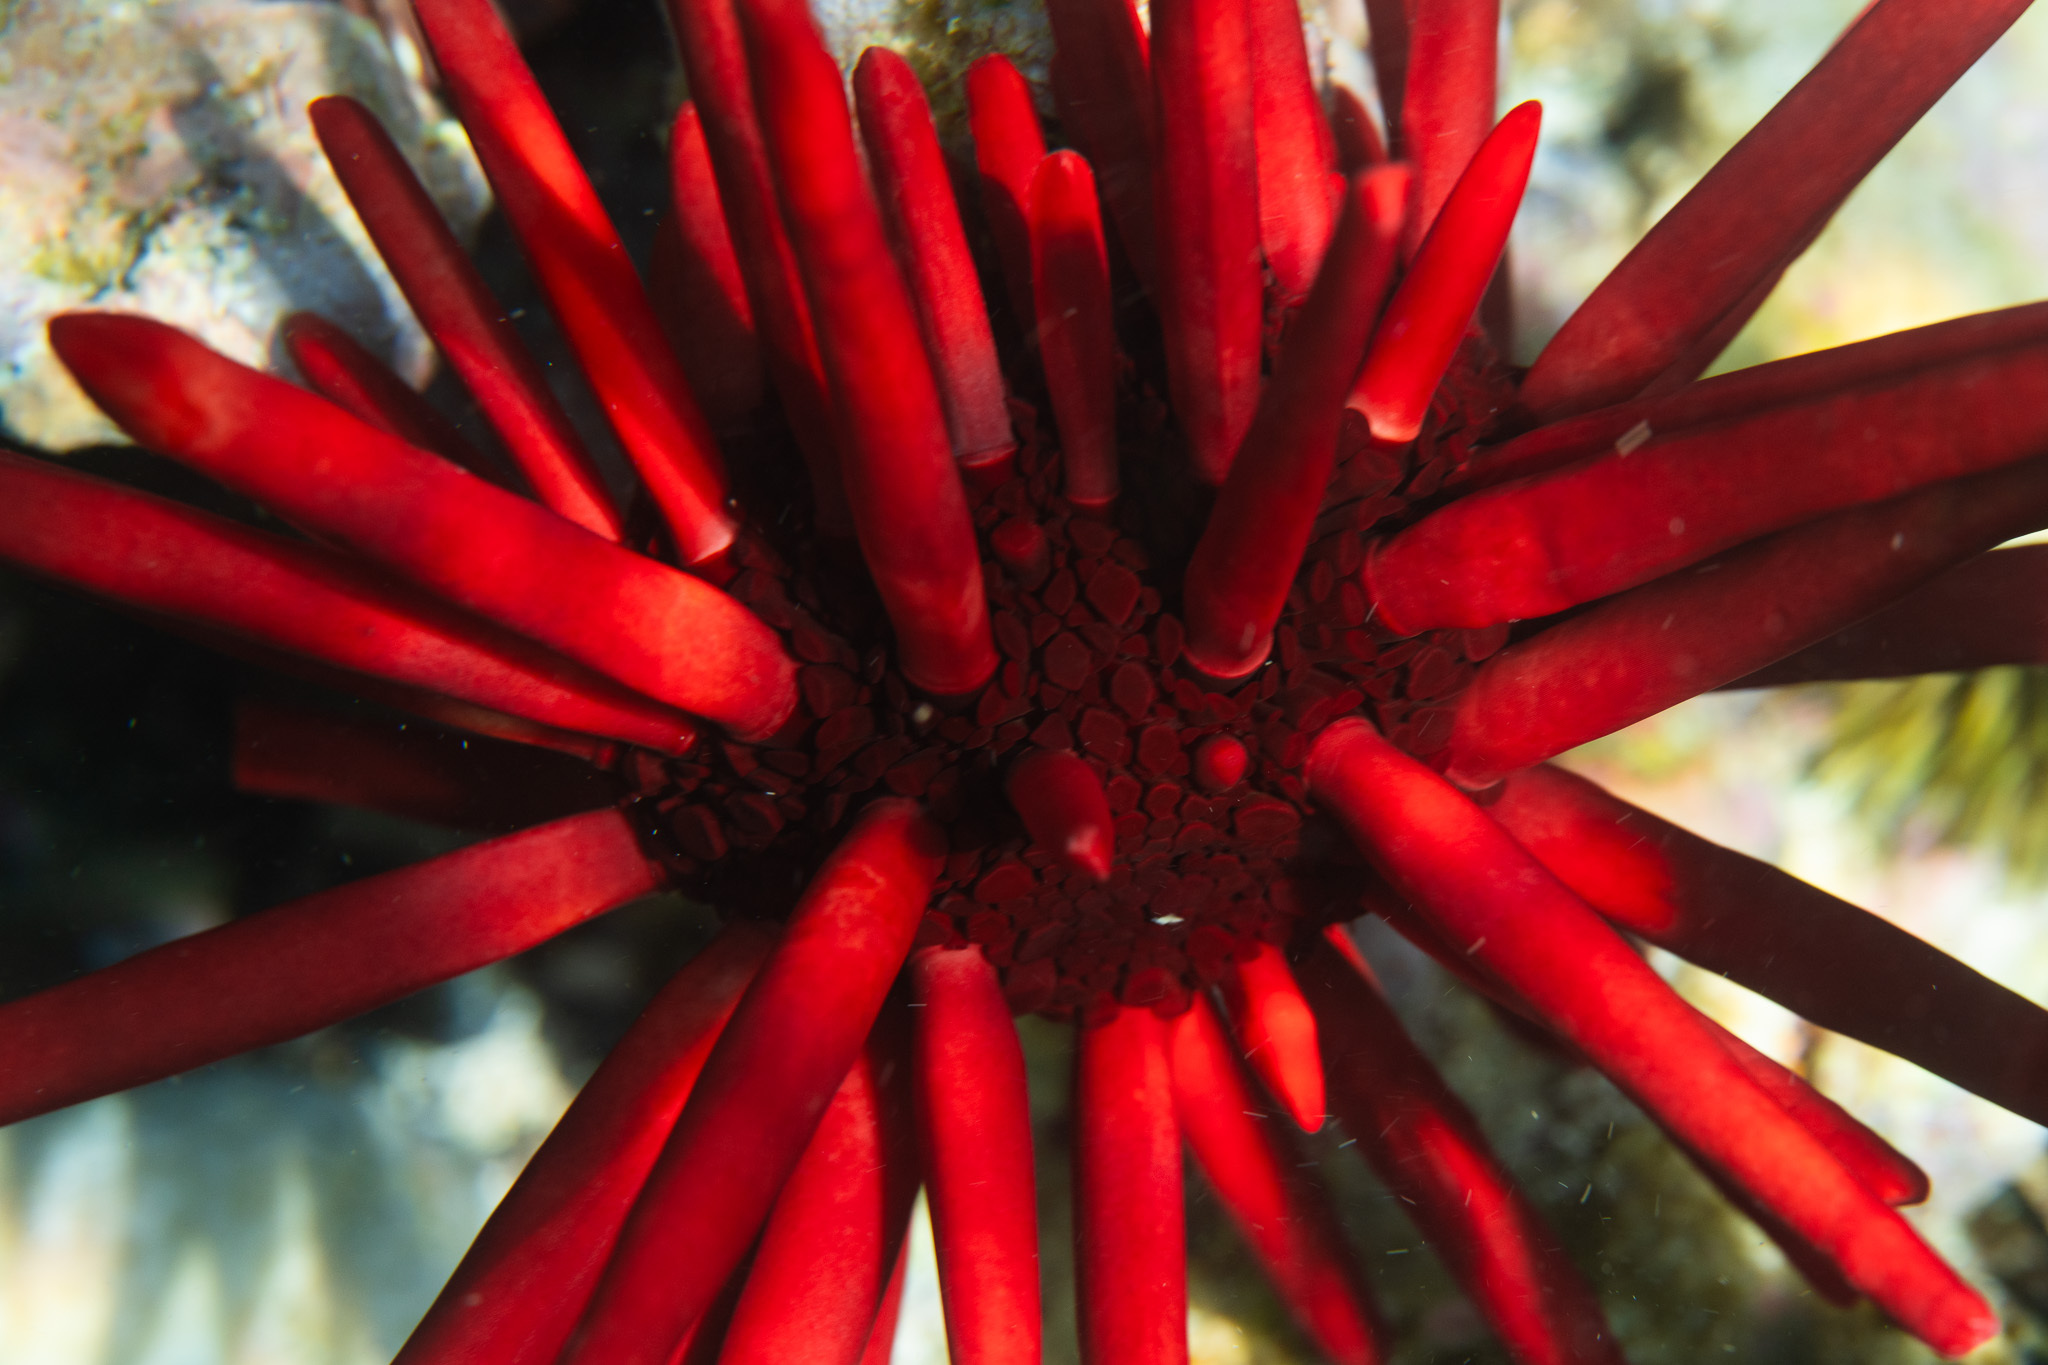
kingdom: Animalia
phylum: Echinodermata
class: Echinoidea
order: Camarodonta
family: Echinometridae
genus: Heterocentrotus
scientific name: Heterocentrotus mamillatus
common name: Slate pencil urchin
